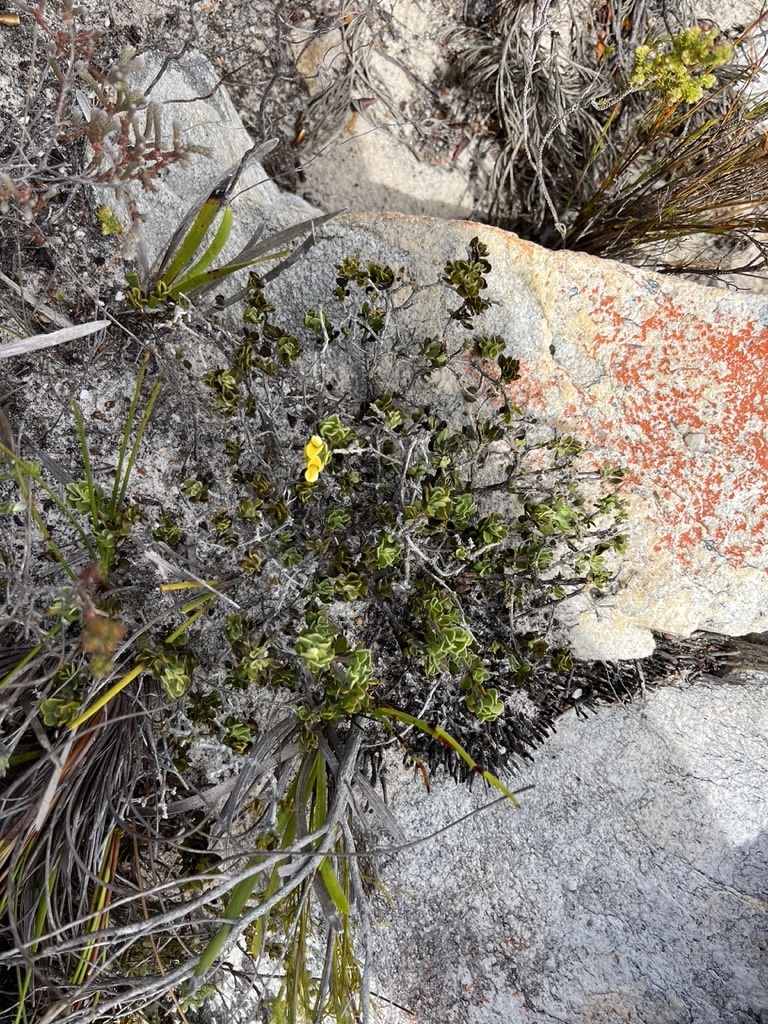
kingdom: Plantae
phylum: Tracheophyta
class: Magnoliopsida
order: Fabales
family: Fabaceae
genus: Aspalathus
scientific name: Aspalathus marginata
